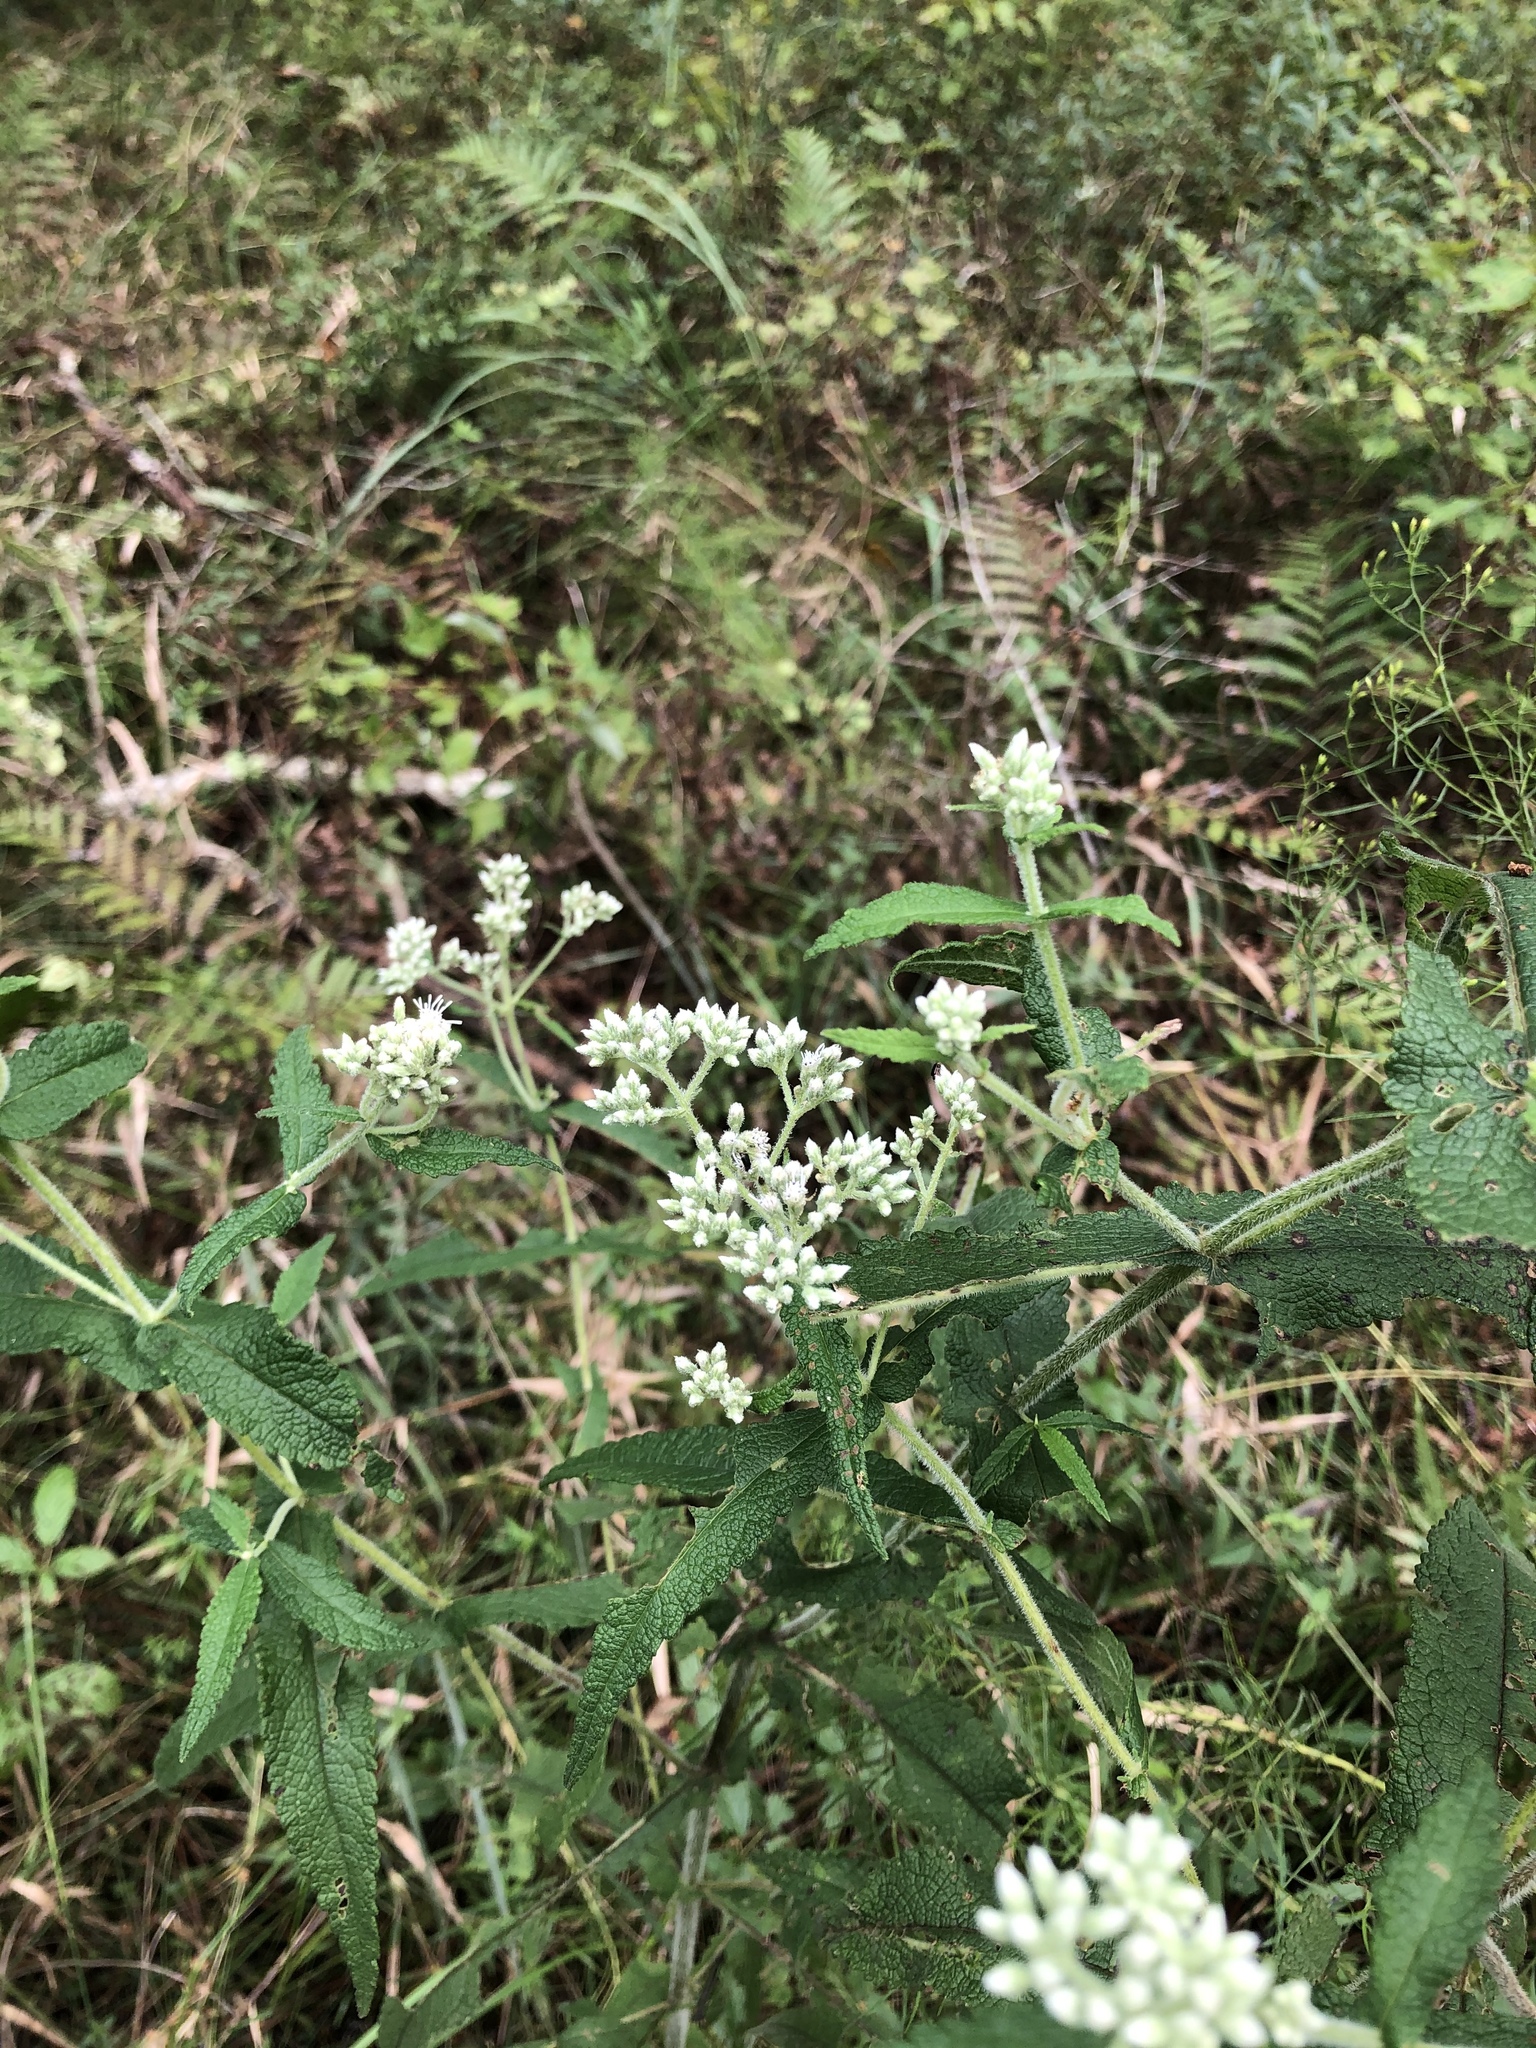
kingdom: Plantae
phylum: Tracheophyta
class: Magnoliopsida
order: Asterales
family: Asteraceae
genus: Eupatorium
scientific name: Eupatorium perfoliatum
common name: Boneset
